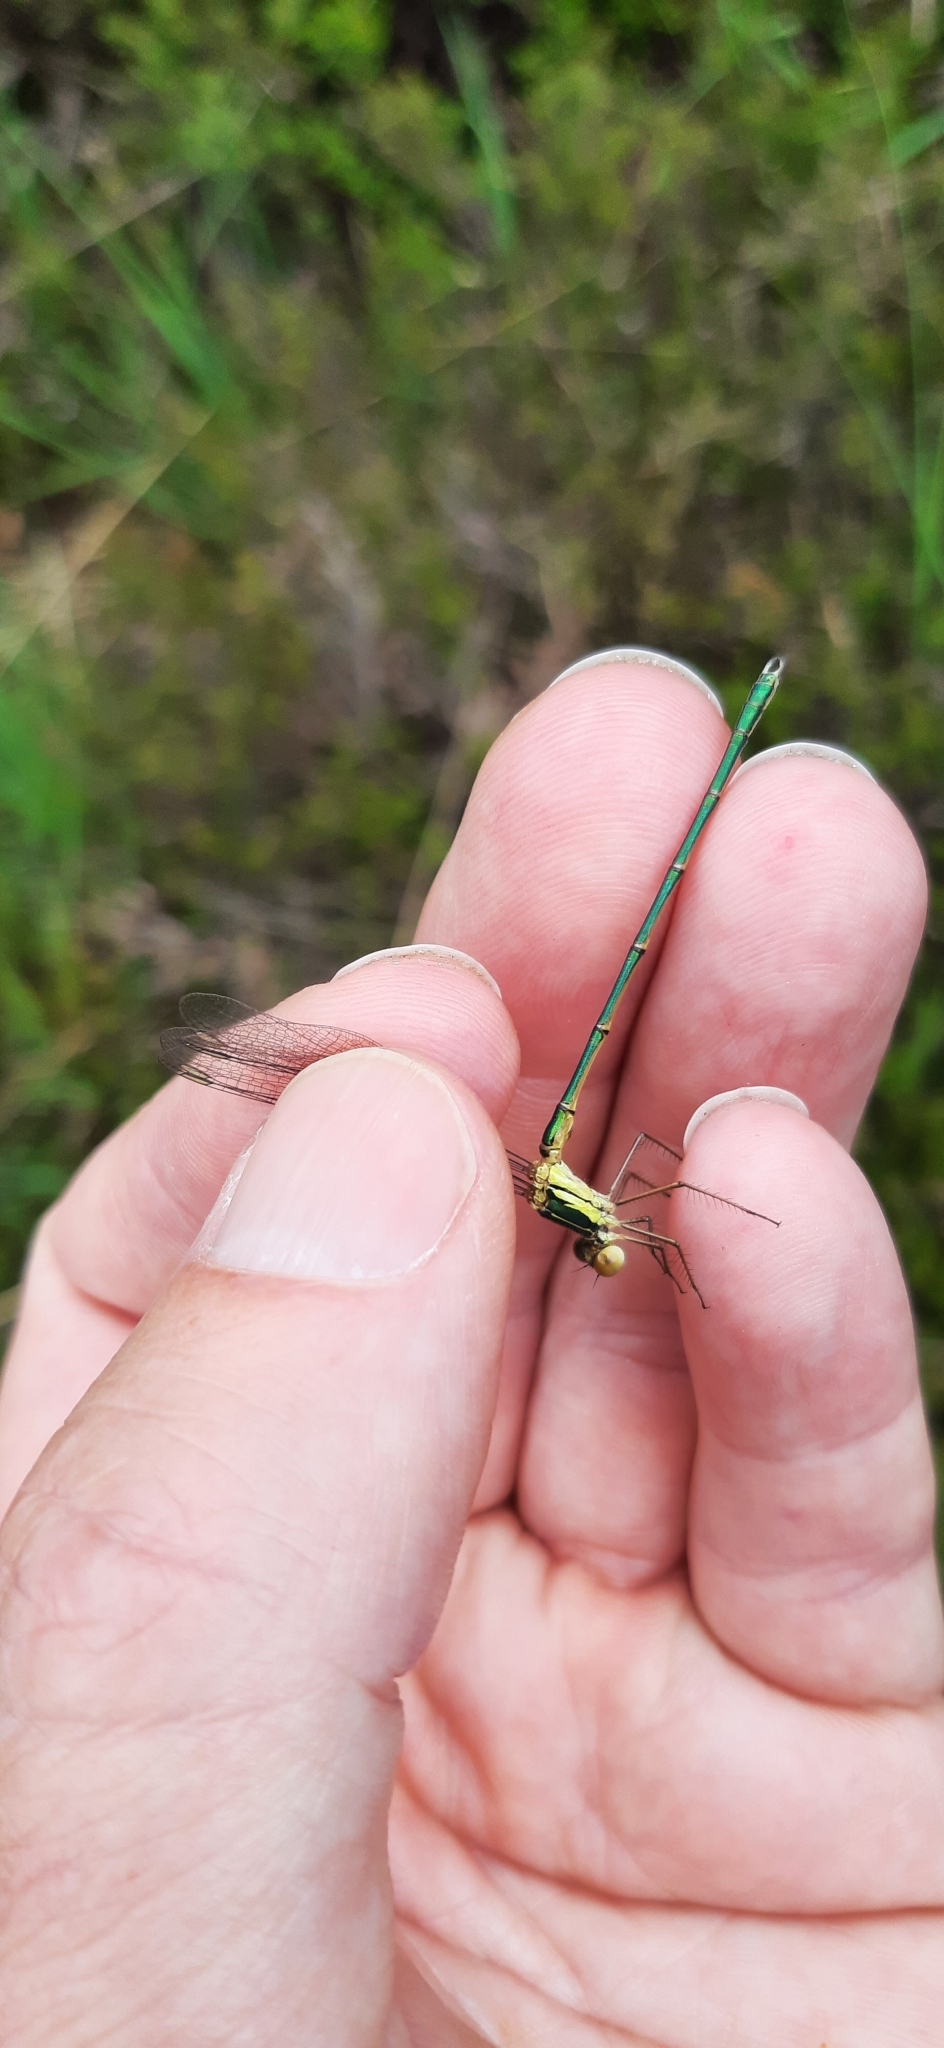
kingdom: Animalia
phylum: Arthropoda
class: Insecta
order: Odonata
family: Lestidae
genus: Chalcolestes
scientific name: Chalcolestes viridis
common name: Green emerald damselfly
